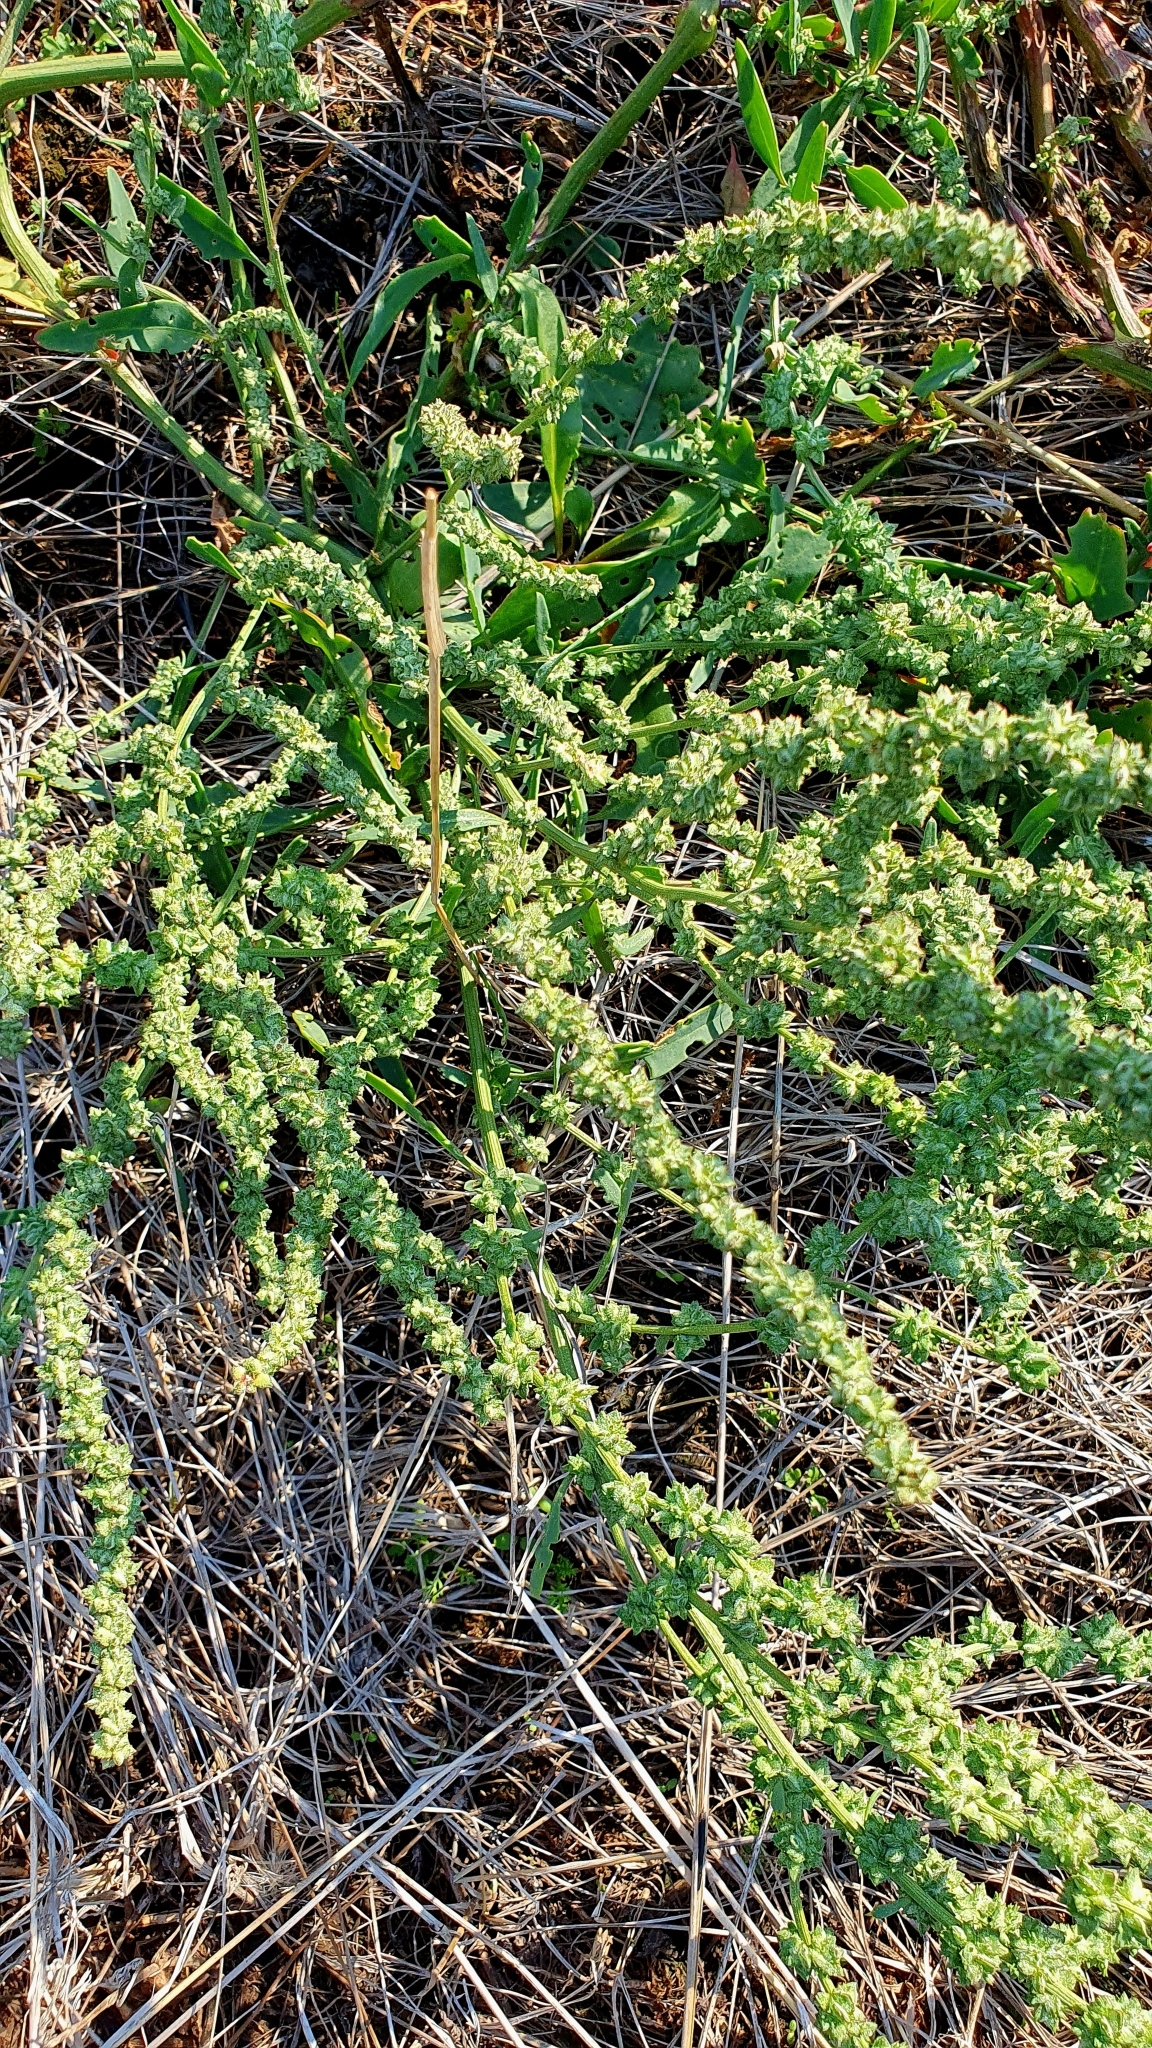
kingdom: Plantae
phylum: Tracheophyta
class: Magnoliopsida
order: Caryophyllales
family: Amaranthaceae
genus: Atriplex
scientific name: Atriplex patens
